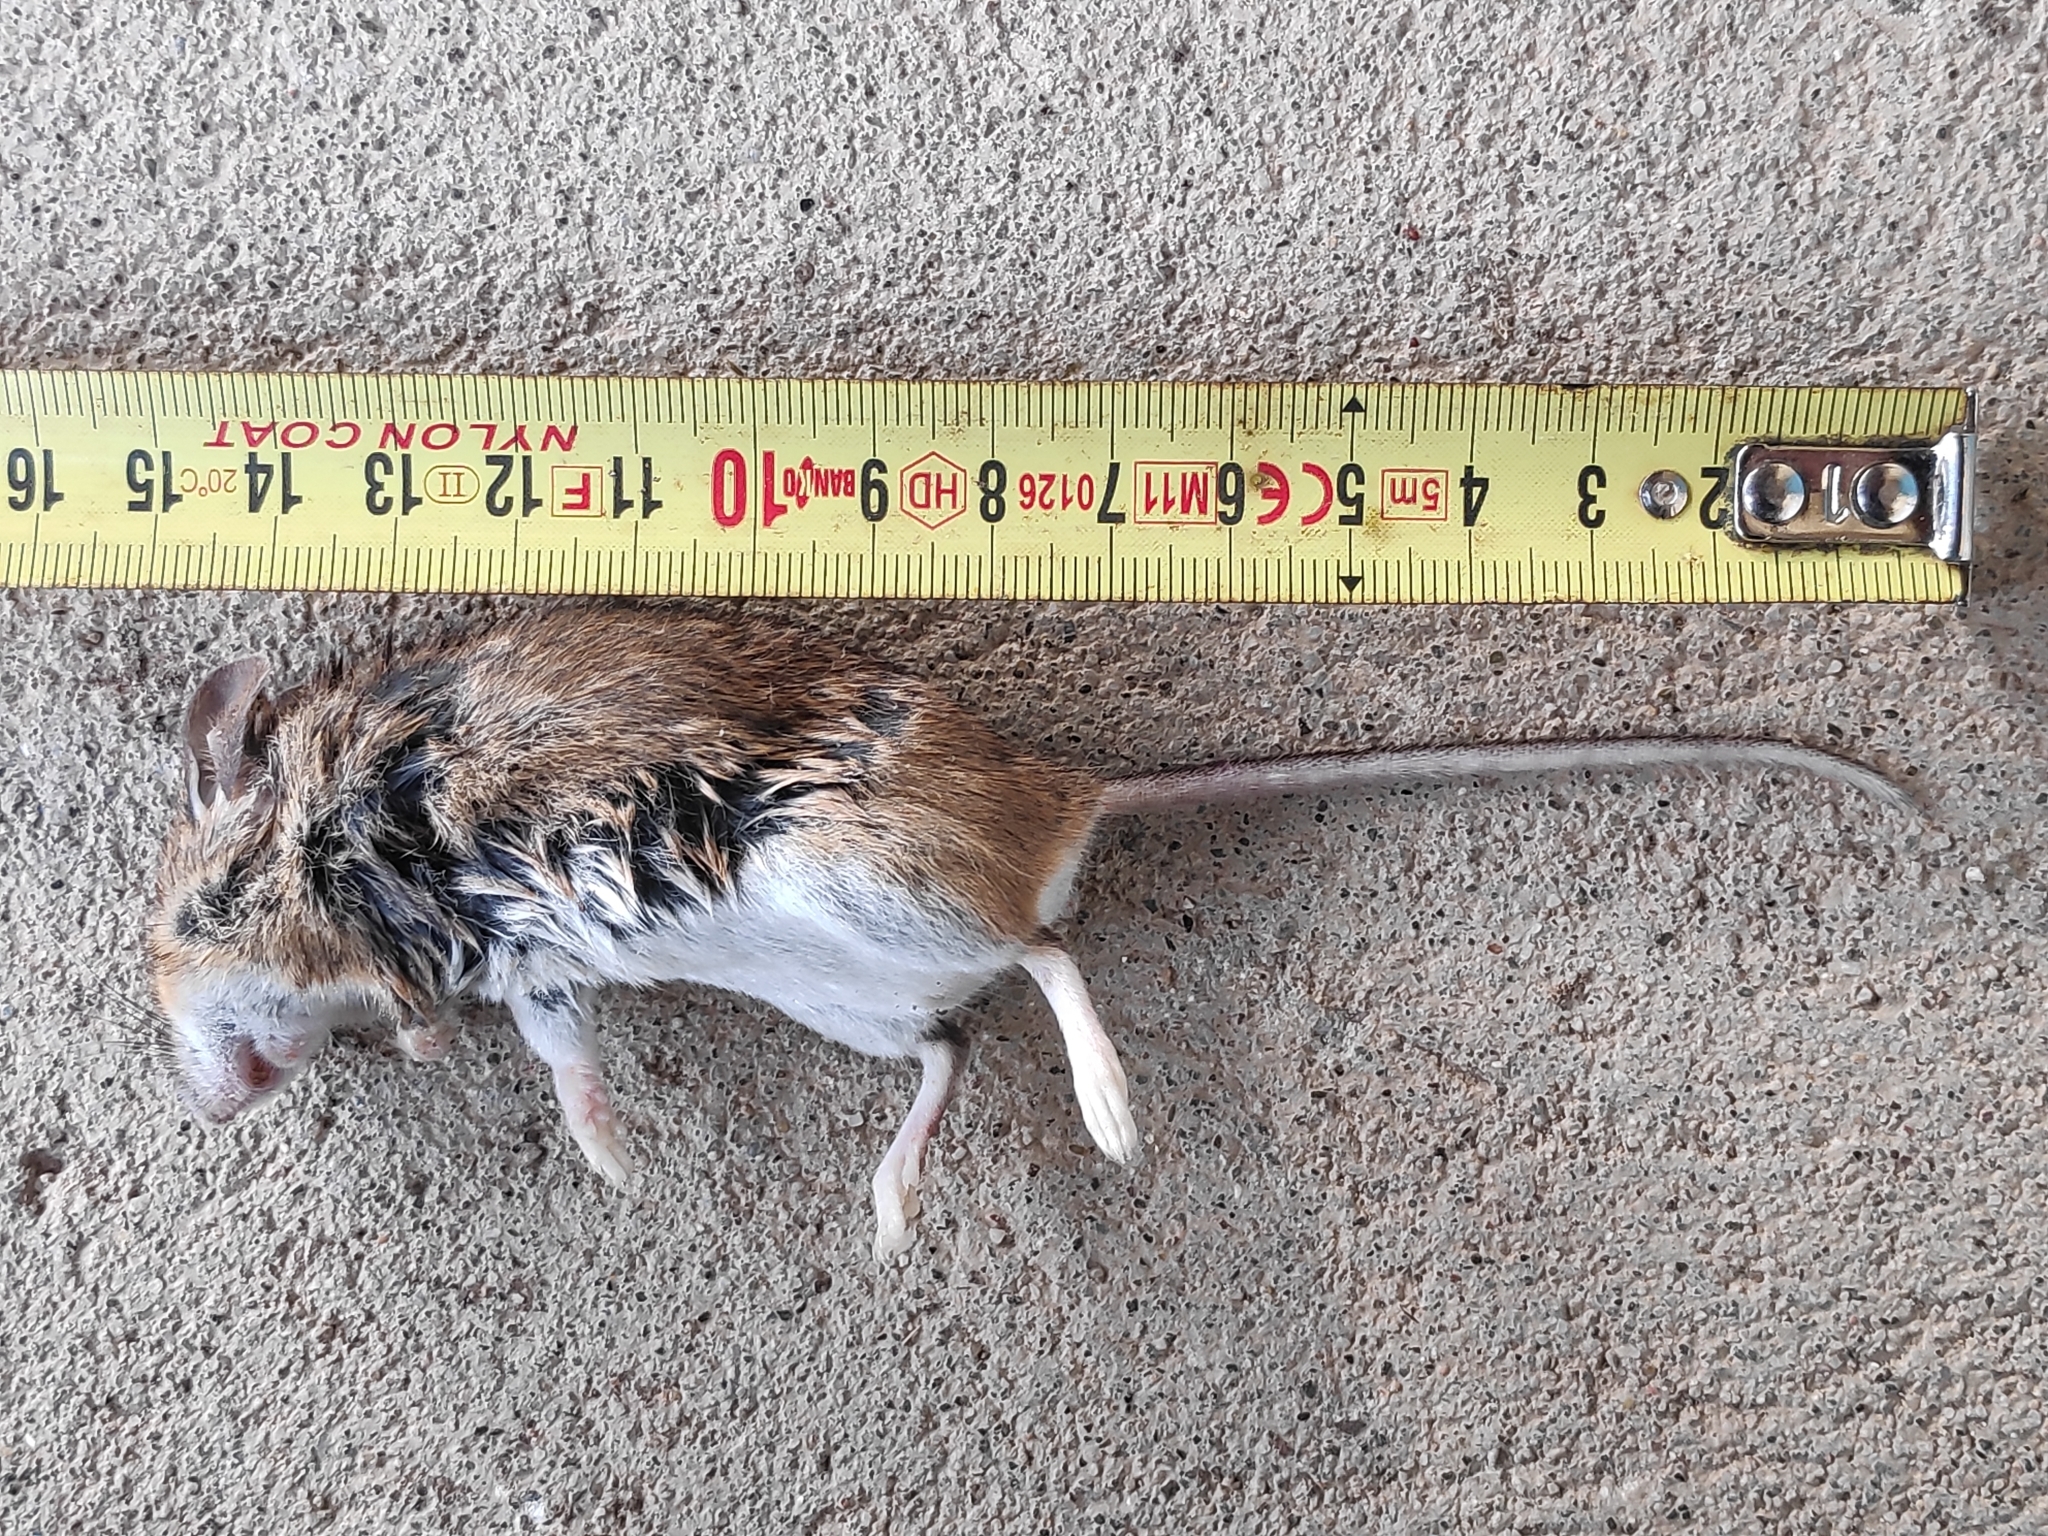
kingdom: Animalia
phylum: Chordata
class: Mammalia
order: Rodentia
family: Muridae
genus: Apodemus
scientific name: Apodemus sylvaticus
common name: Wood mouse
